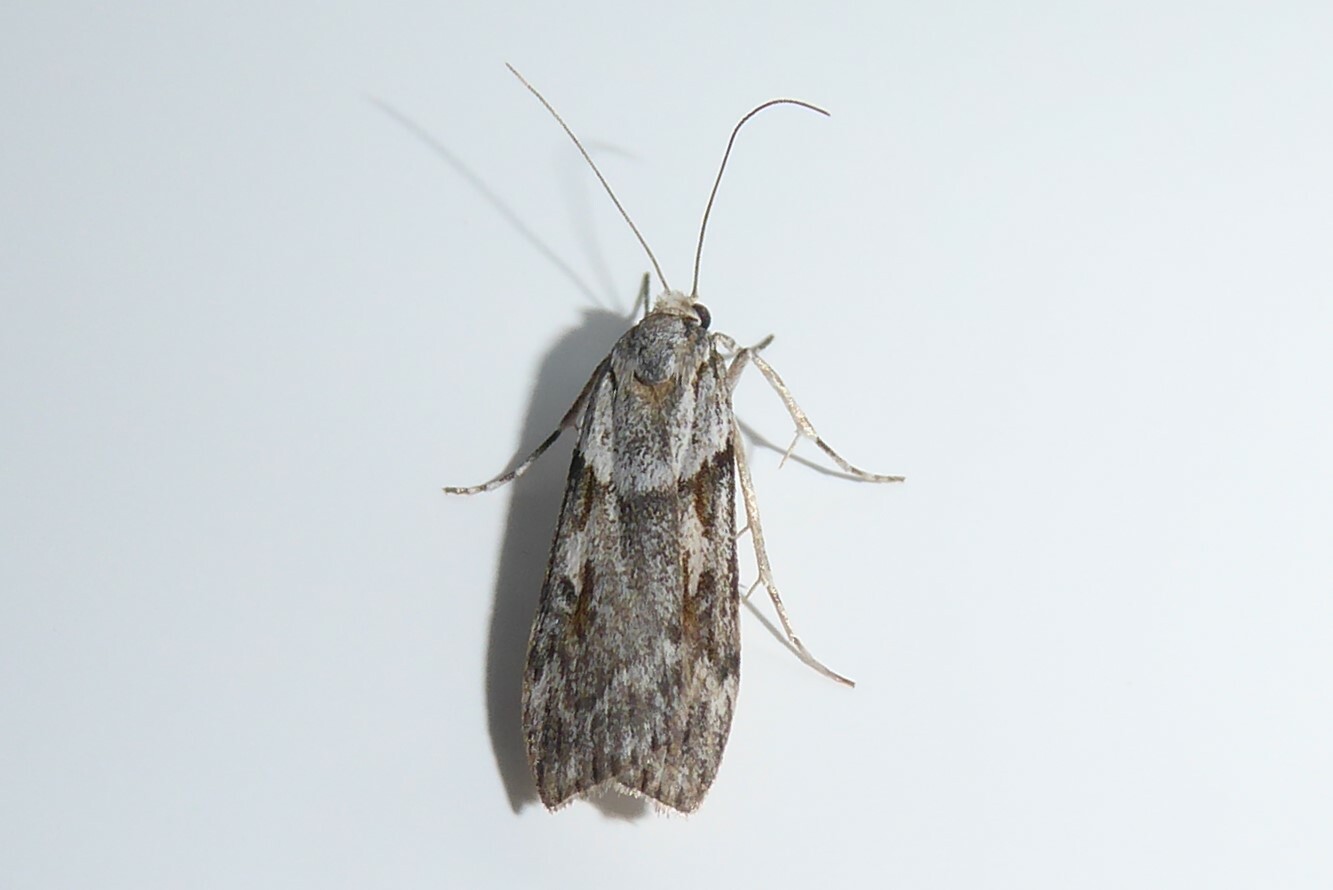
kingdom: Animalia
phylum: Arthropoda
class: Insecta
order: Lepidoptera
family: Crambidae
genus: Scoparia
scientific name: Scoparia halopis
